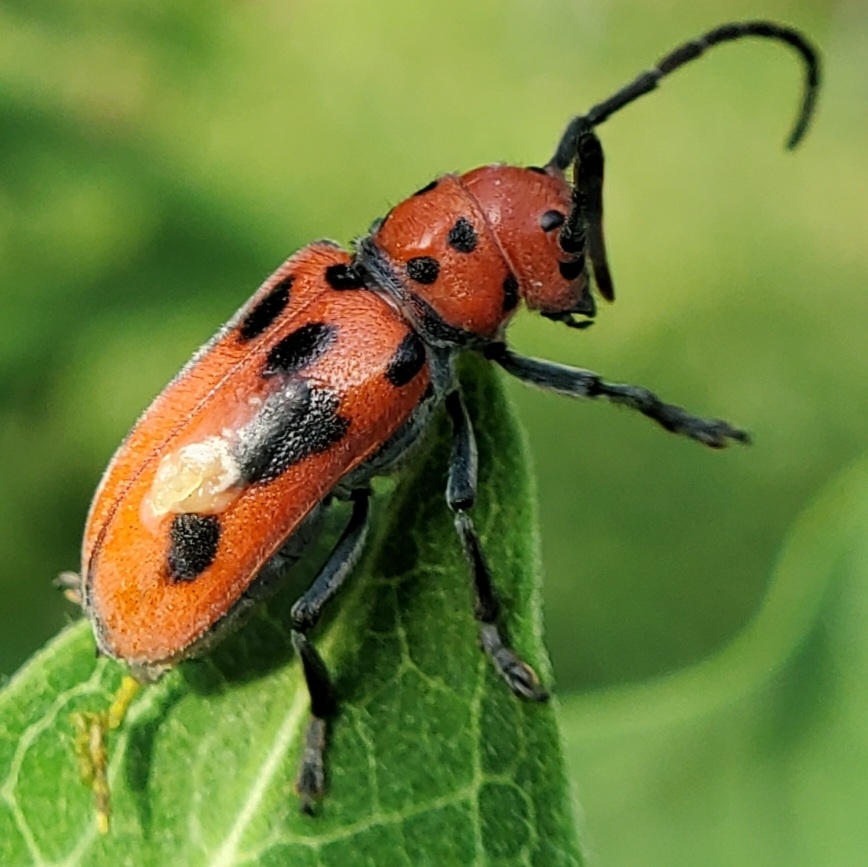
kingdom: Animalia
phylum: Arthropoda
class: Insecta
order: Coleoptera
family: Cerambycidae
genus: Tetraopes
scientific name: Tetraopes tetrophthalmus
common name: Red milkweed beetle
